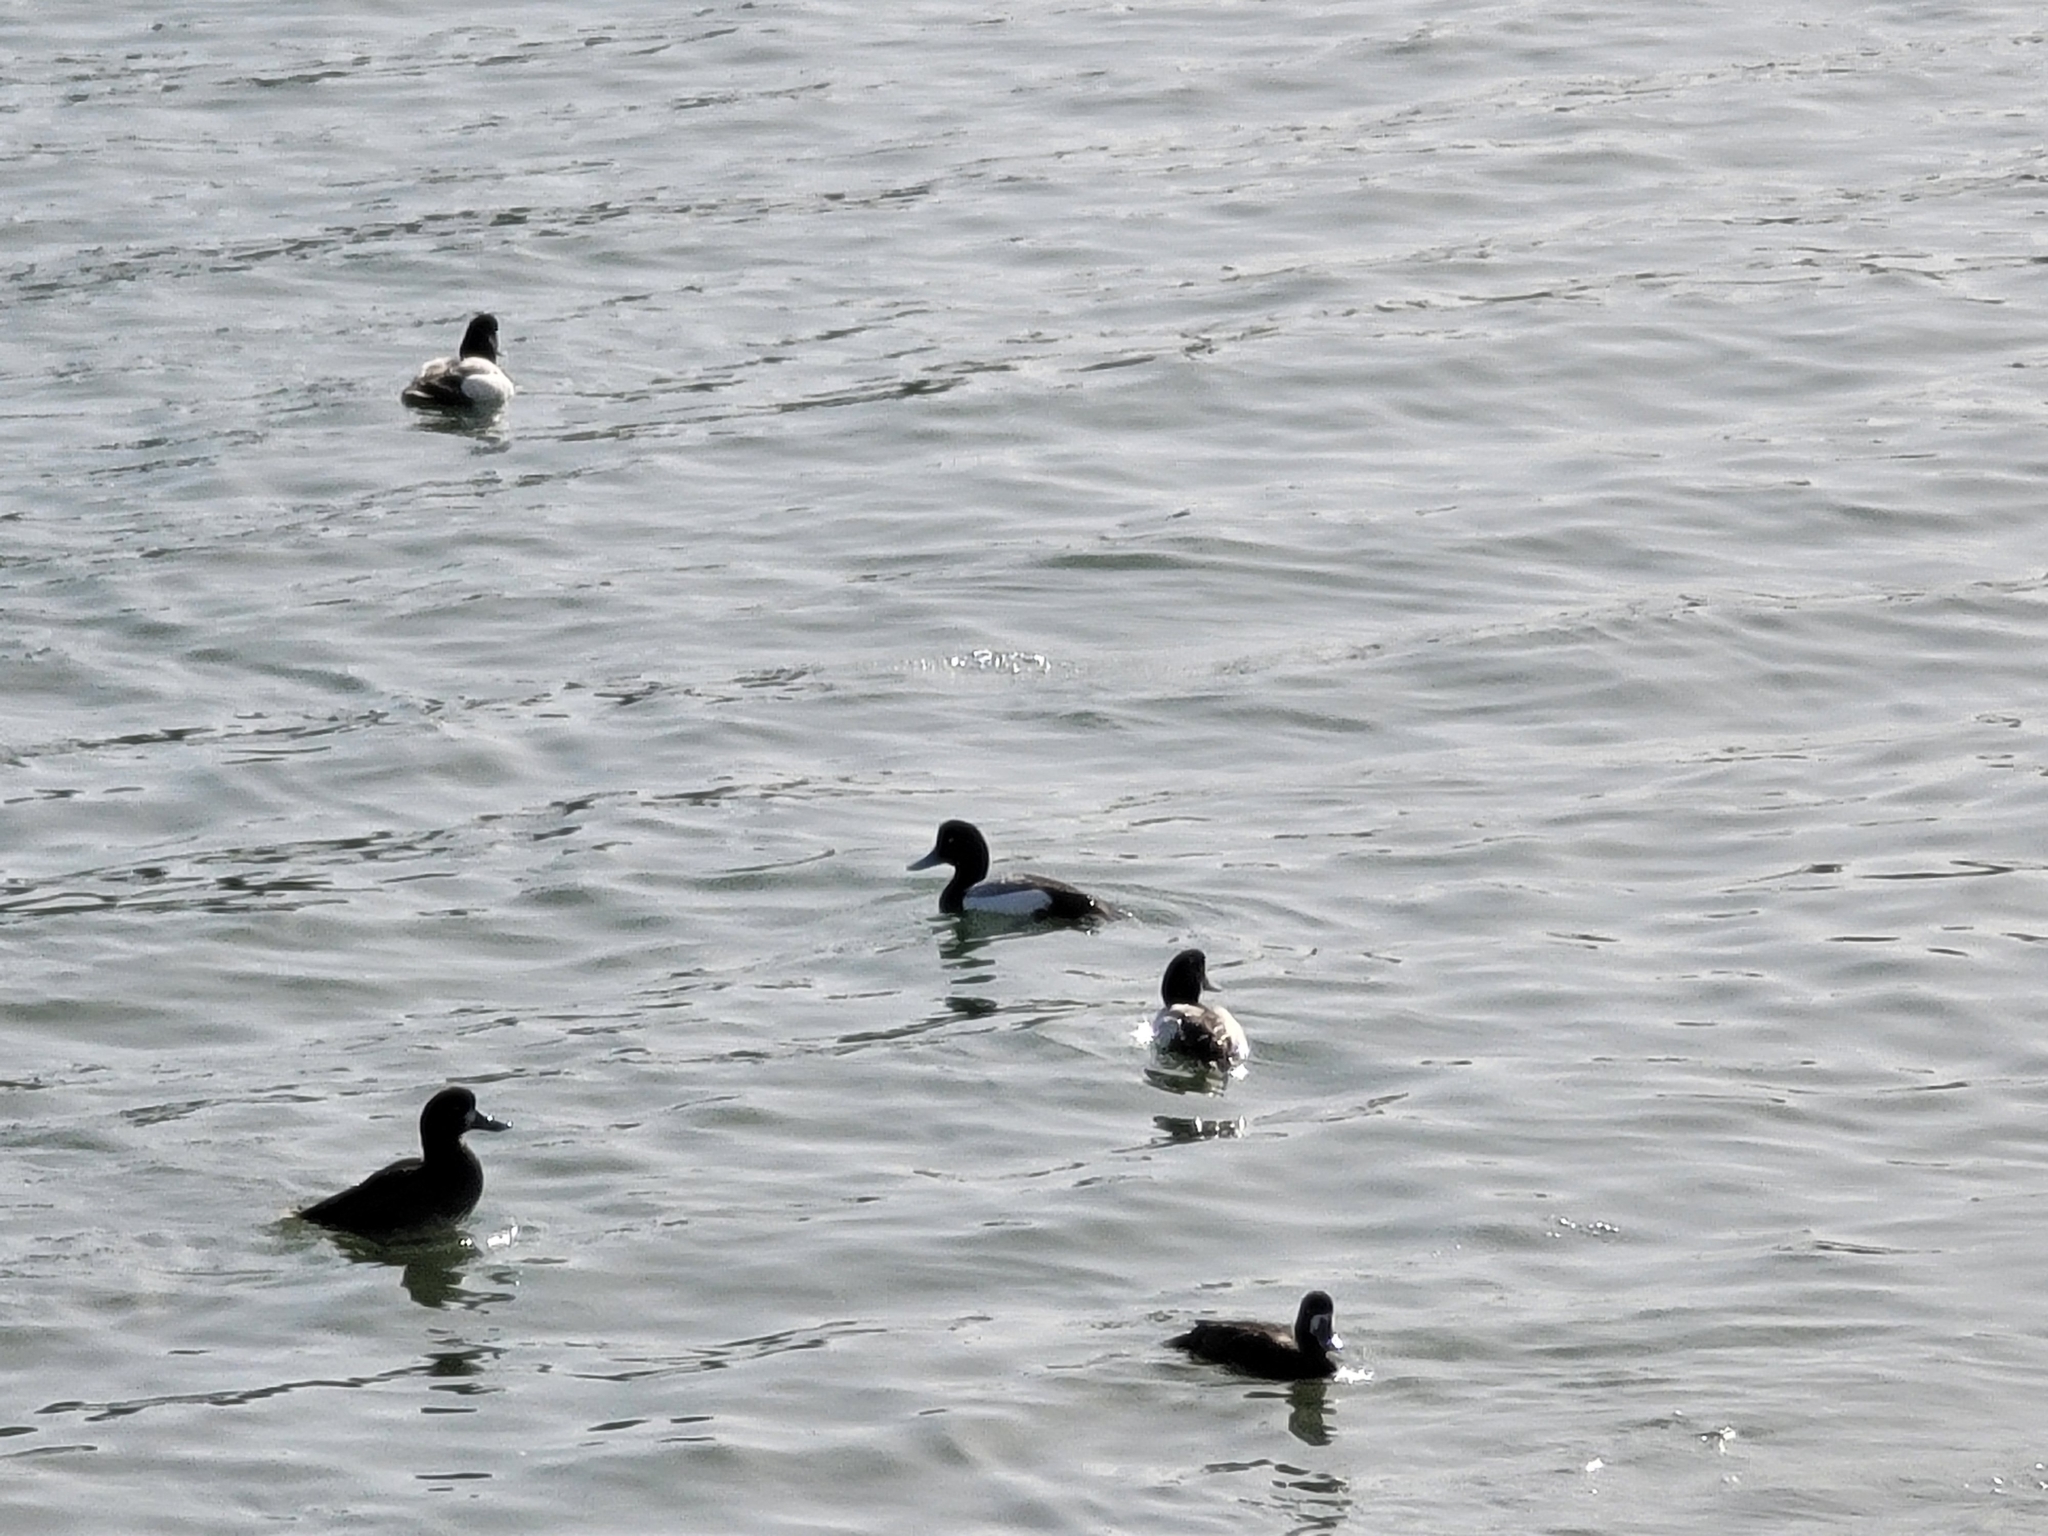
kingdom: Animalia
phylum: Chordata
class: Aves
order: Anseriformes
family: Anatidae
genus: Aythya
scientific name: Aythya marila
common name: Greater scaup
